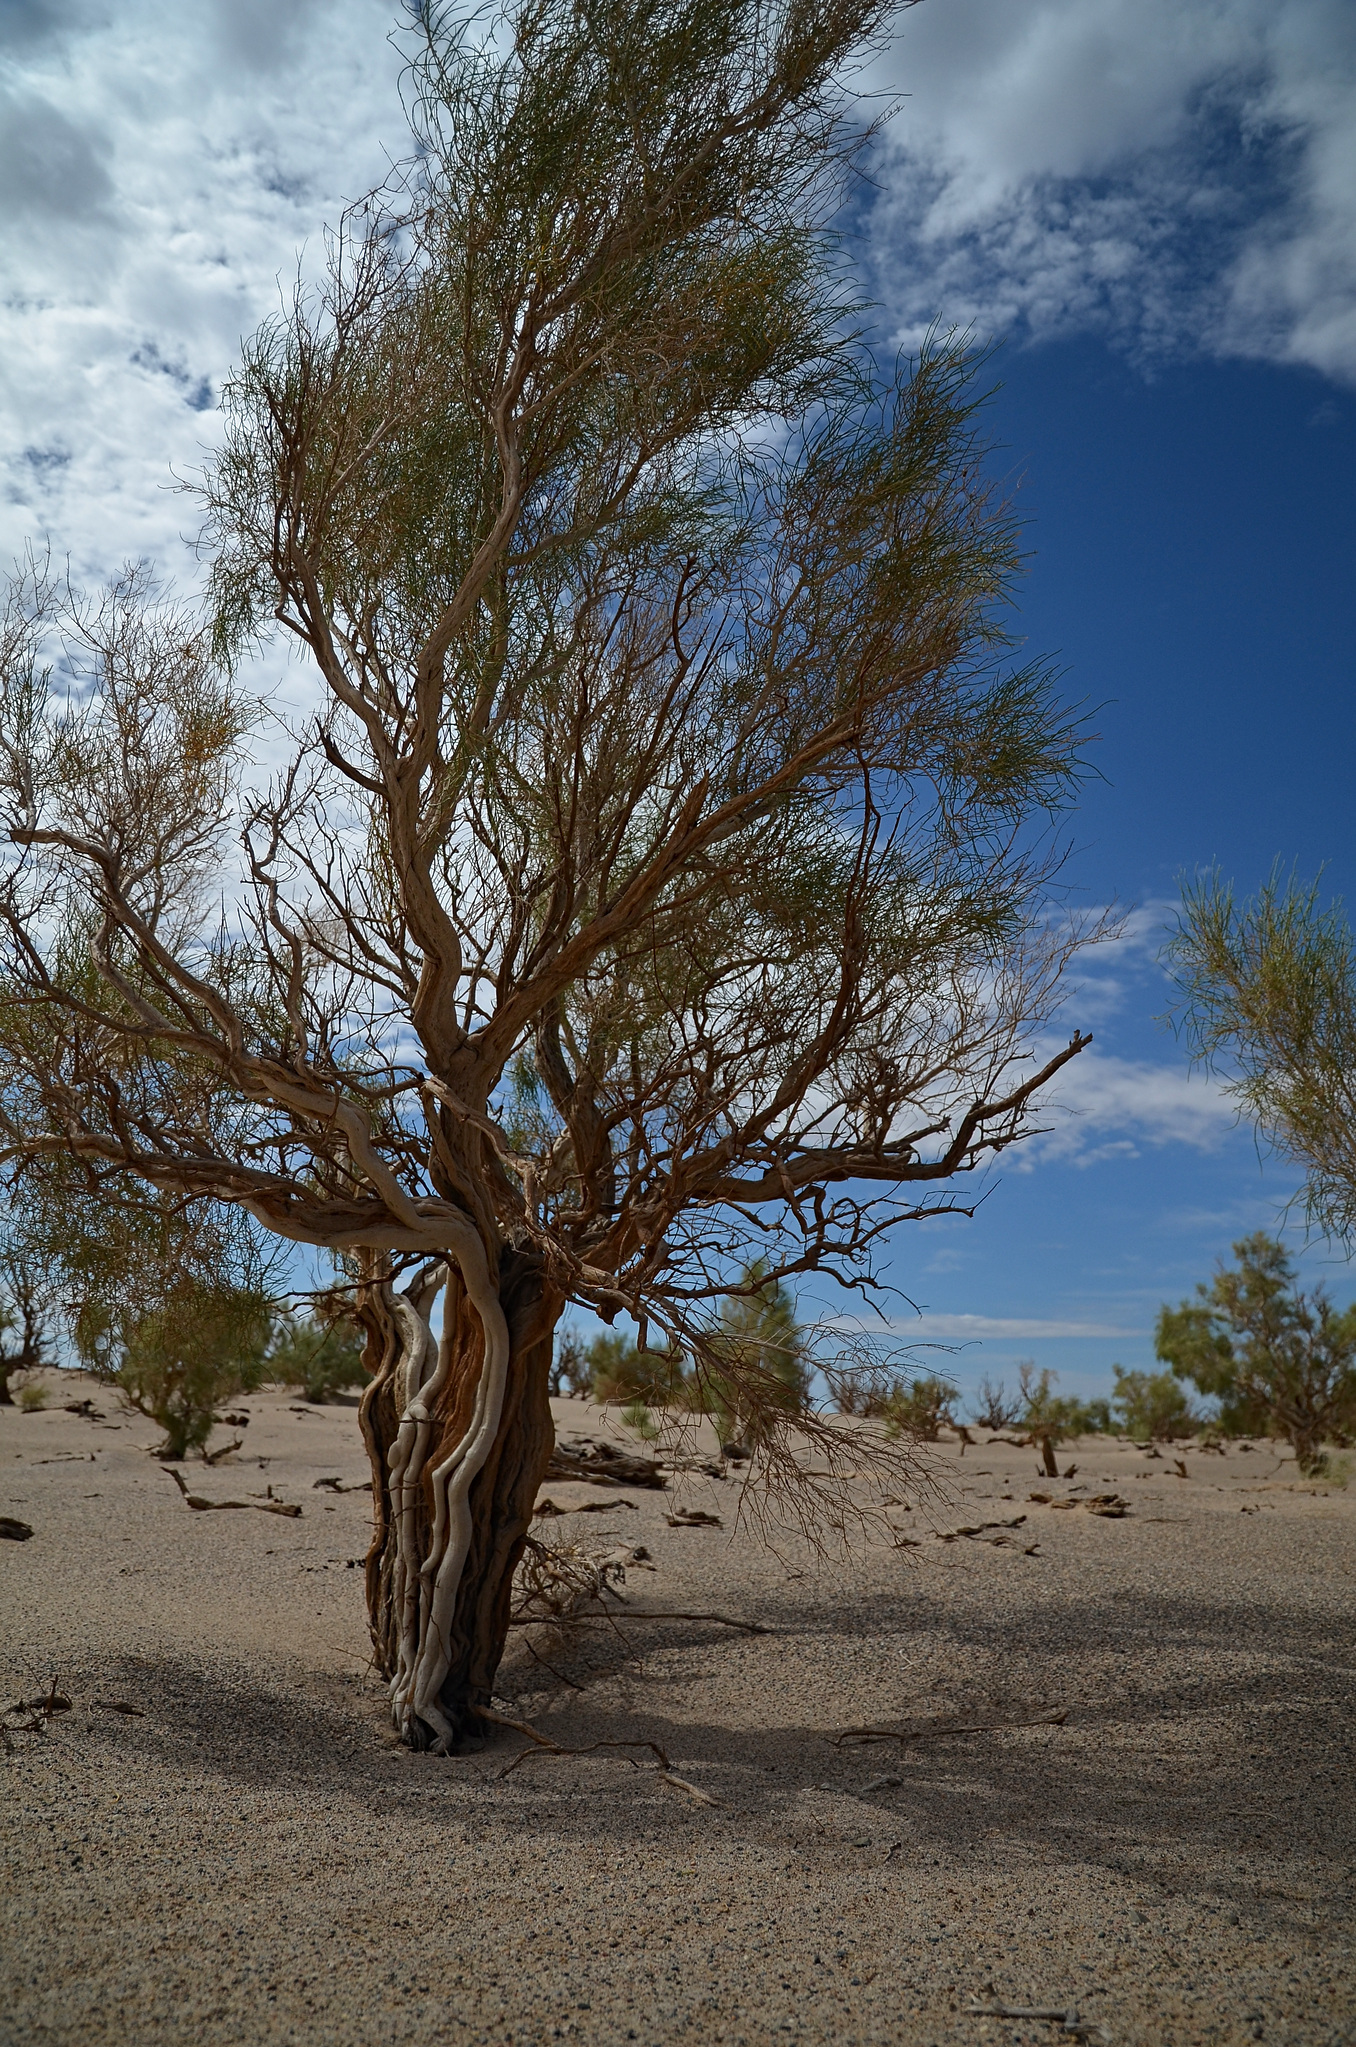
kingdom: Plantae
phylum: Tracheophyta
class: Magnoliopsida
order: Caryophyllales
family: Amaranthaceae
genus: Haloxylon
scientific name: Haloxylon ammodendron
